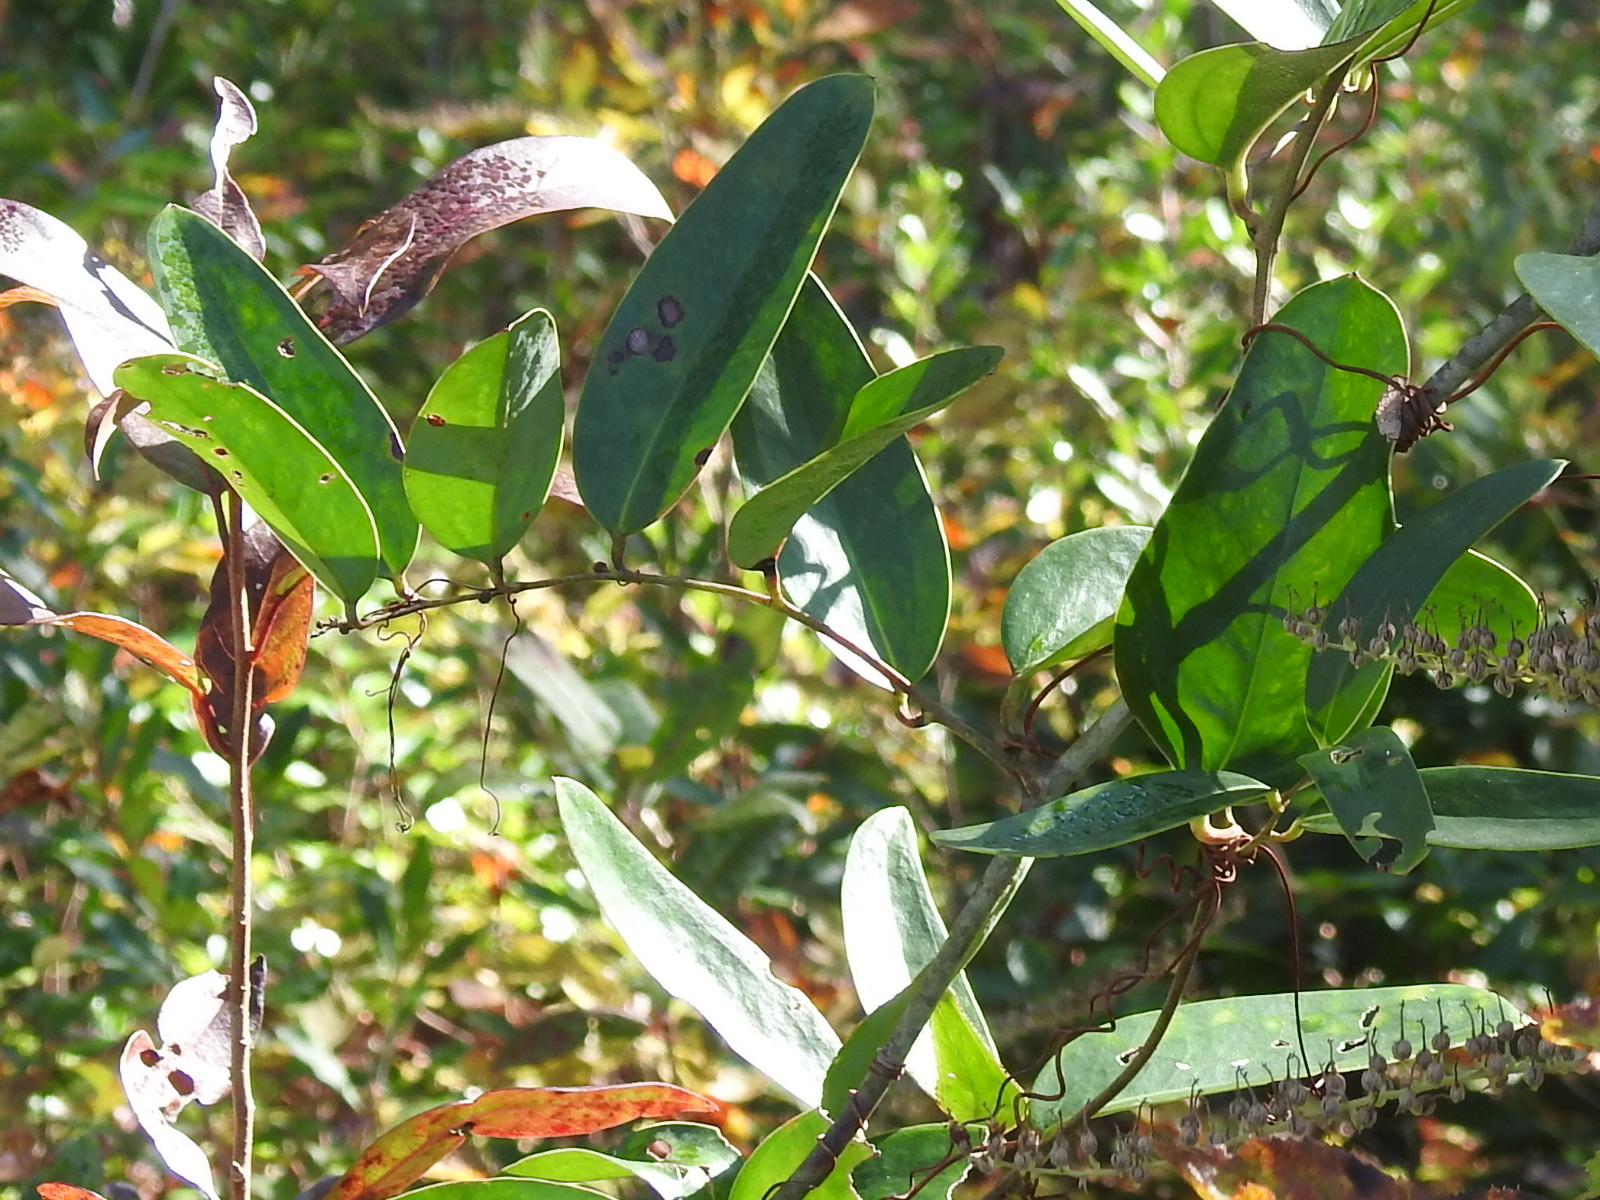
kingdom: Plantae
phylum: Tracheophyta
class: Liliopsida
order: Liliales
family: Smilacaceae
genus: Smilax
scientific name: Smilax laurifolia
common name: Bamboovine
